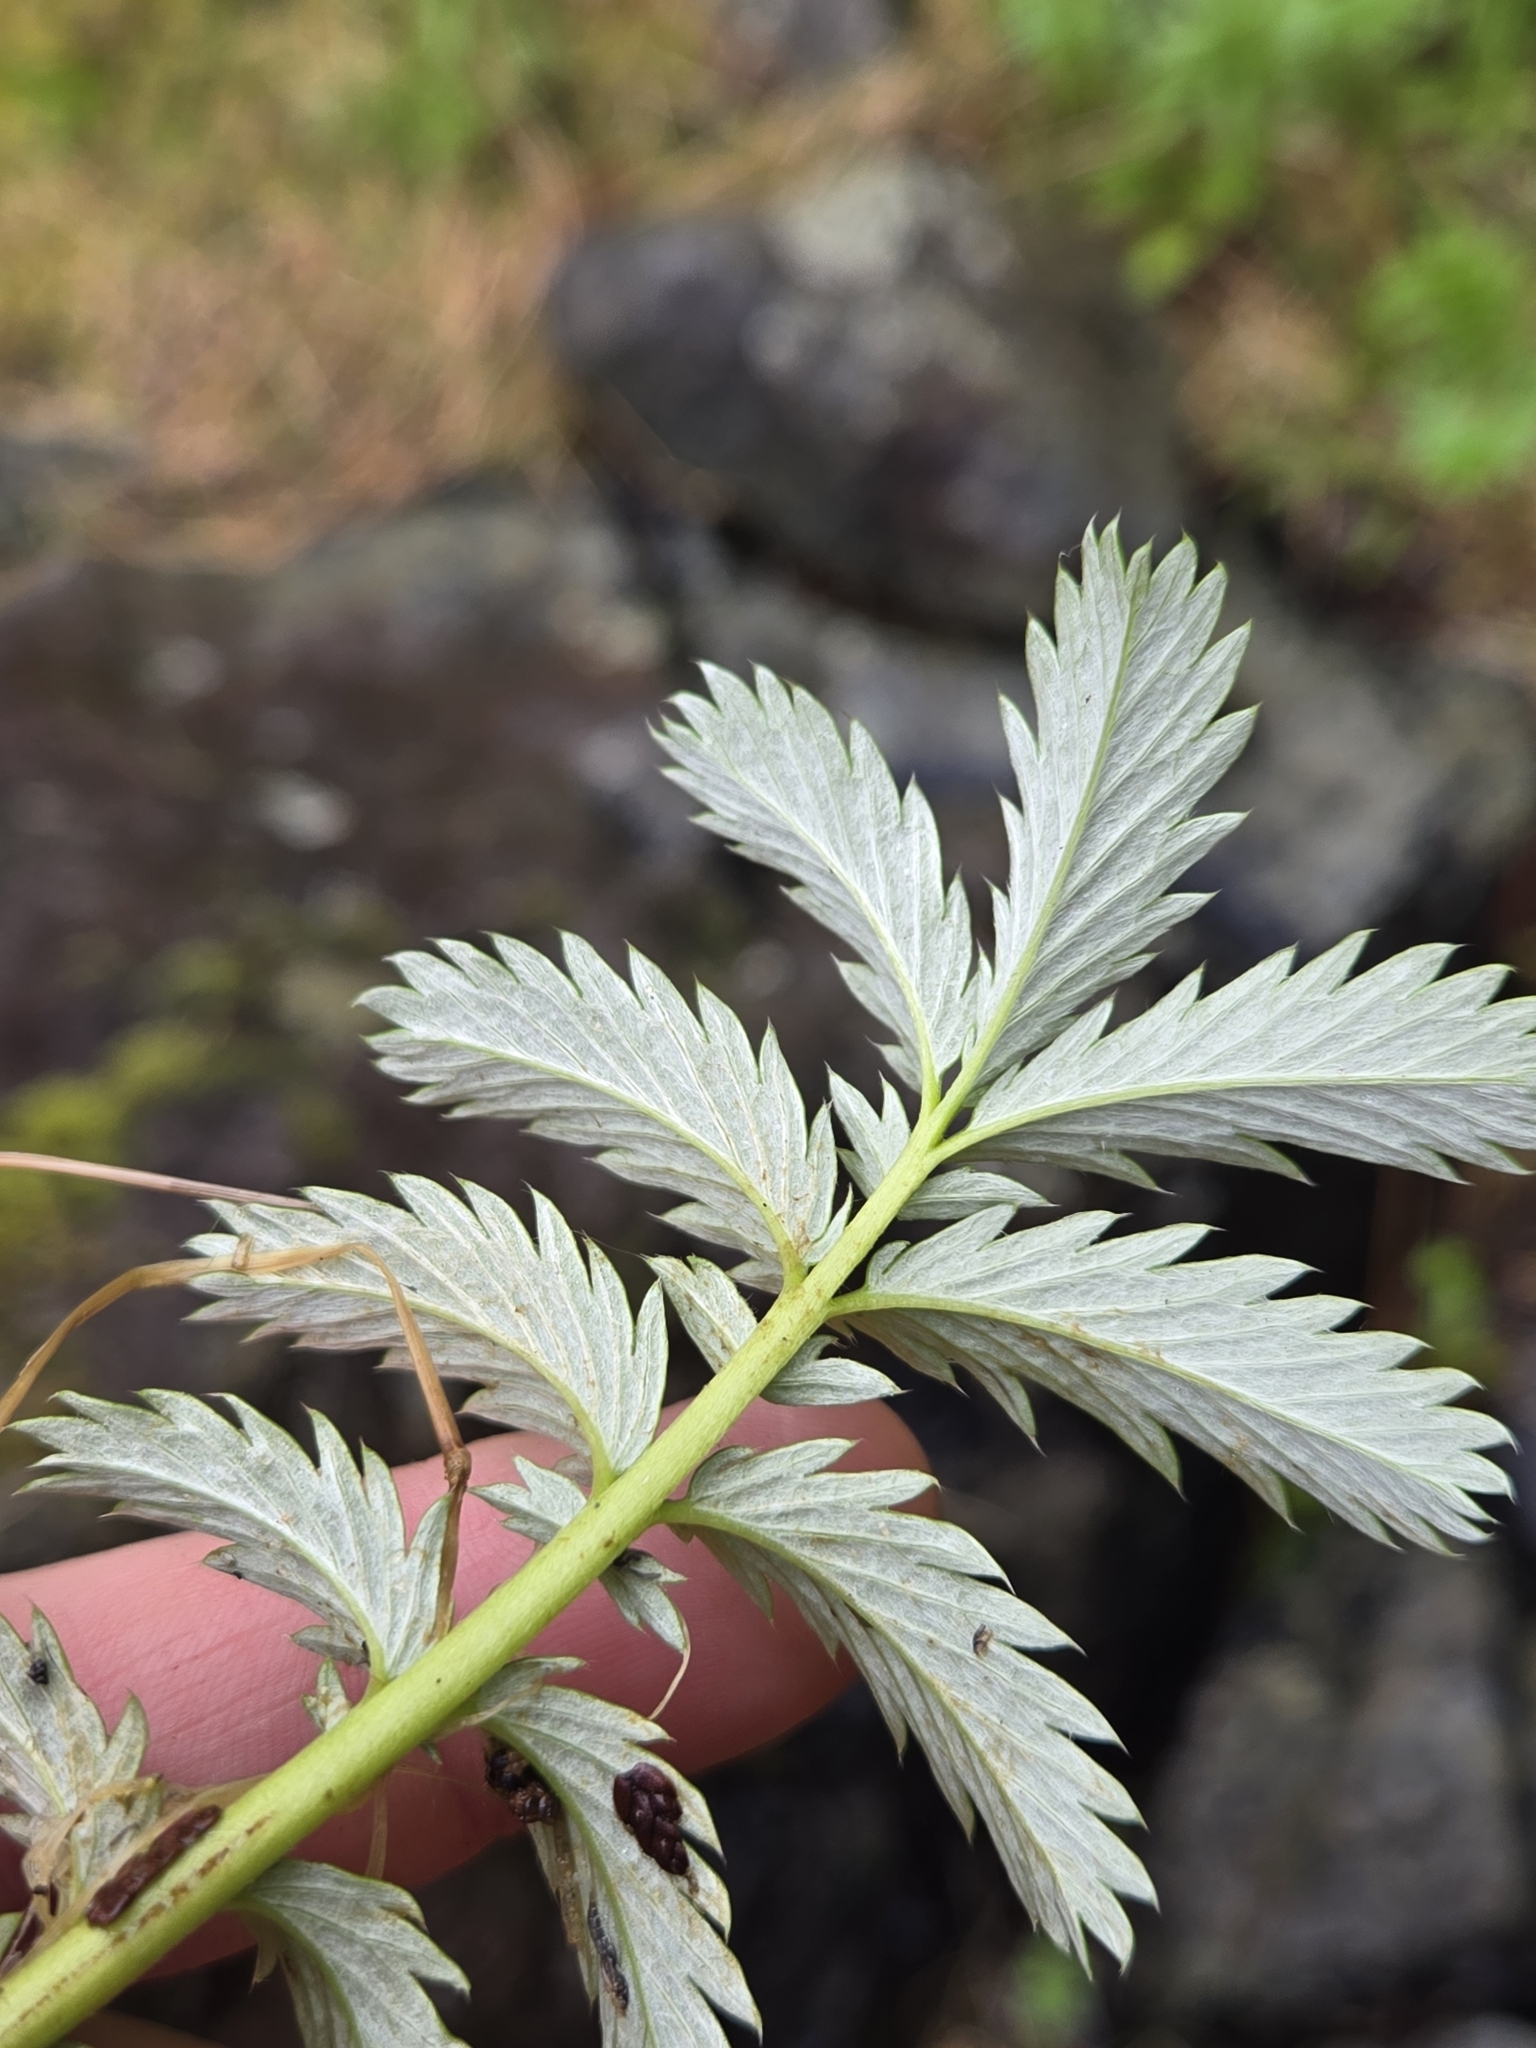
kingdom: Plantae
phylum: Tracheophyta
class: Magnoliopsida
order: Rosales
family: Rosaceae
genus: Argentina
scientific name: Argentina anserina
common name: Common silverweed
